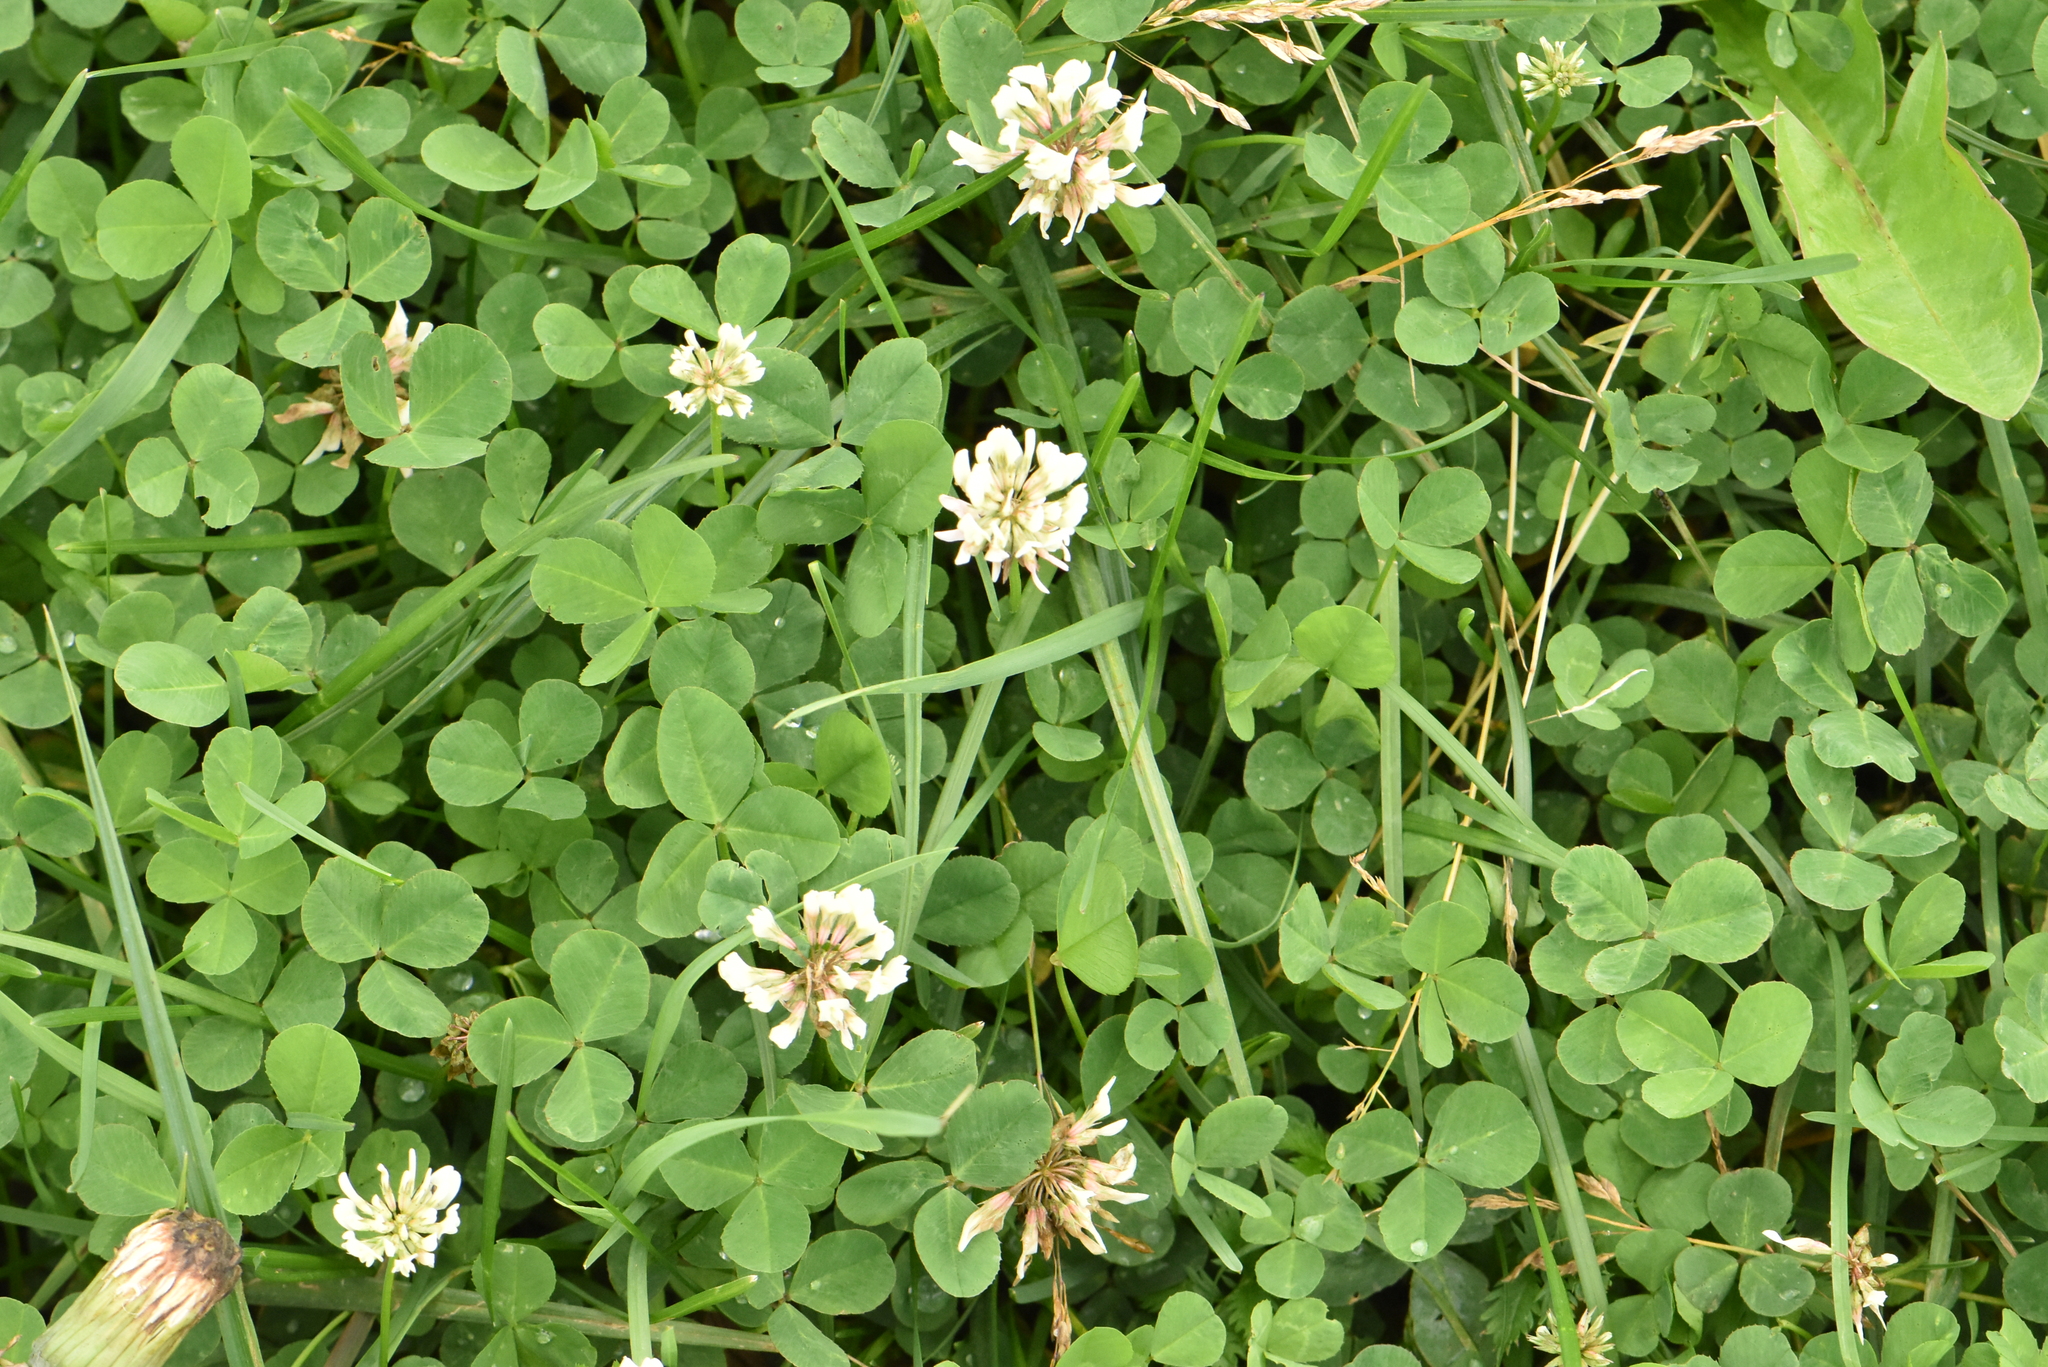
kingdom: Plantae
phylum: Tracheophyta
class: Magnoliopsida
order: Fabales
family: Fabaceae
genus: Trifolium
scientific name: Trifolium repens
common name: White clover
